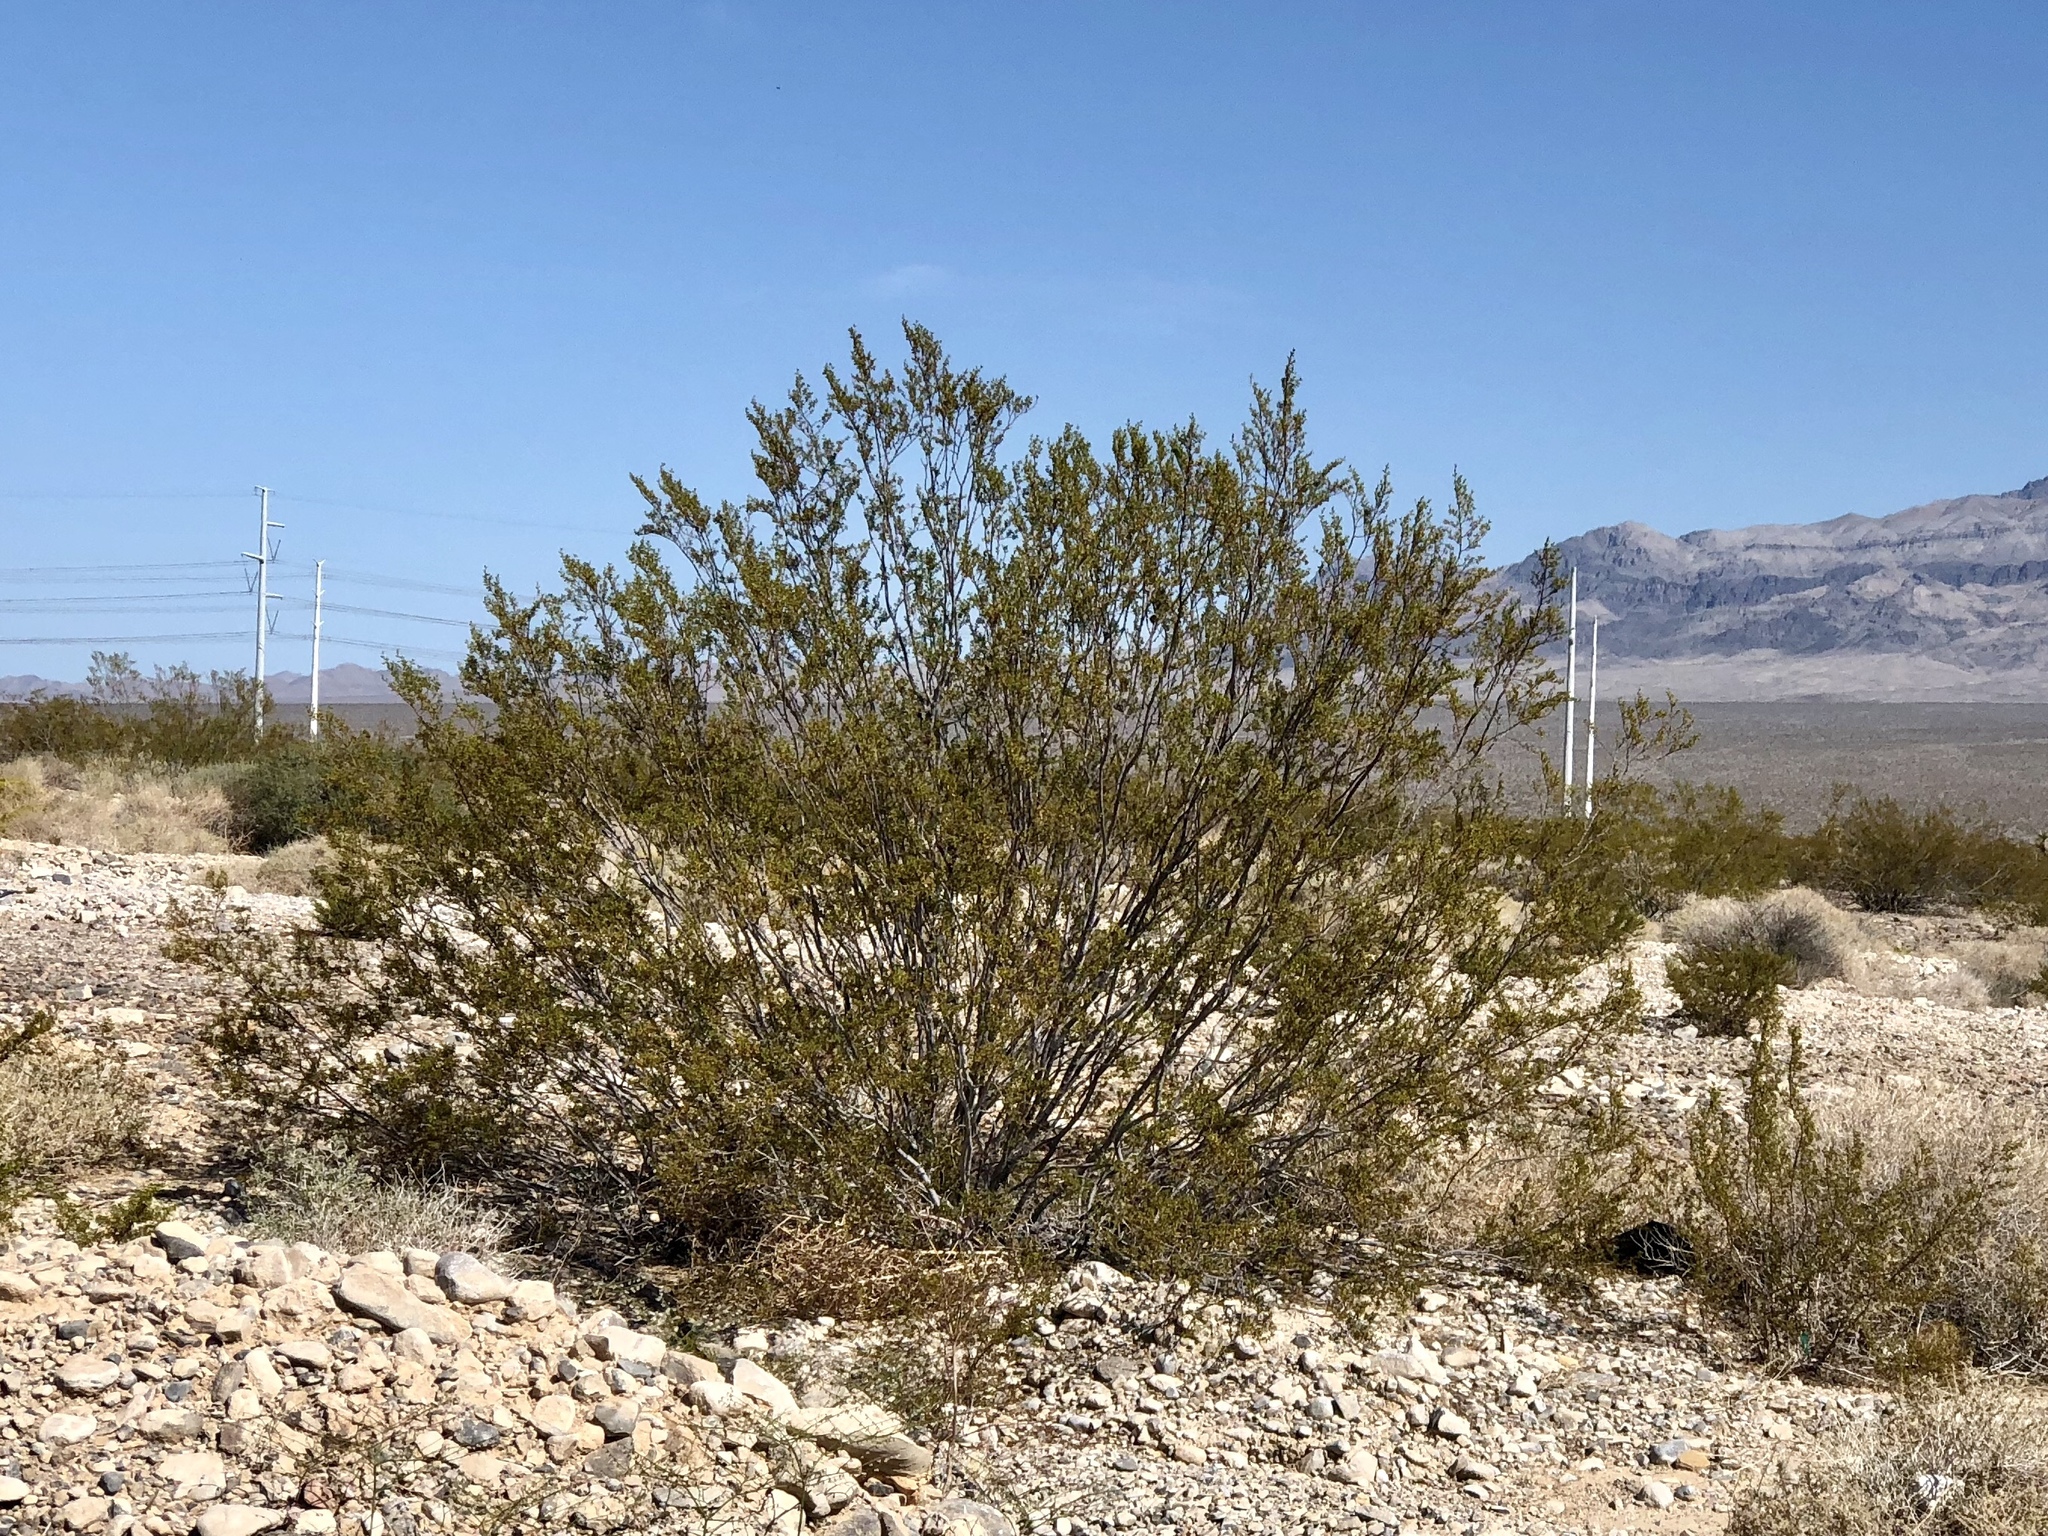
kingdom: Plantae
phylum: Tracheophyta
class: Magnoliopsida
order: Zygophyllales
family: Zygophyllaceae
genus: Larrea
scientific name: Larrea tridentata
